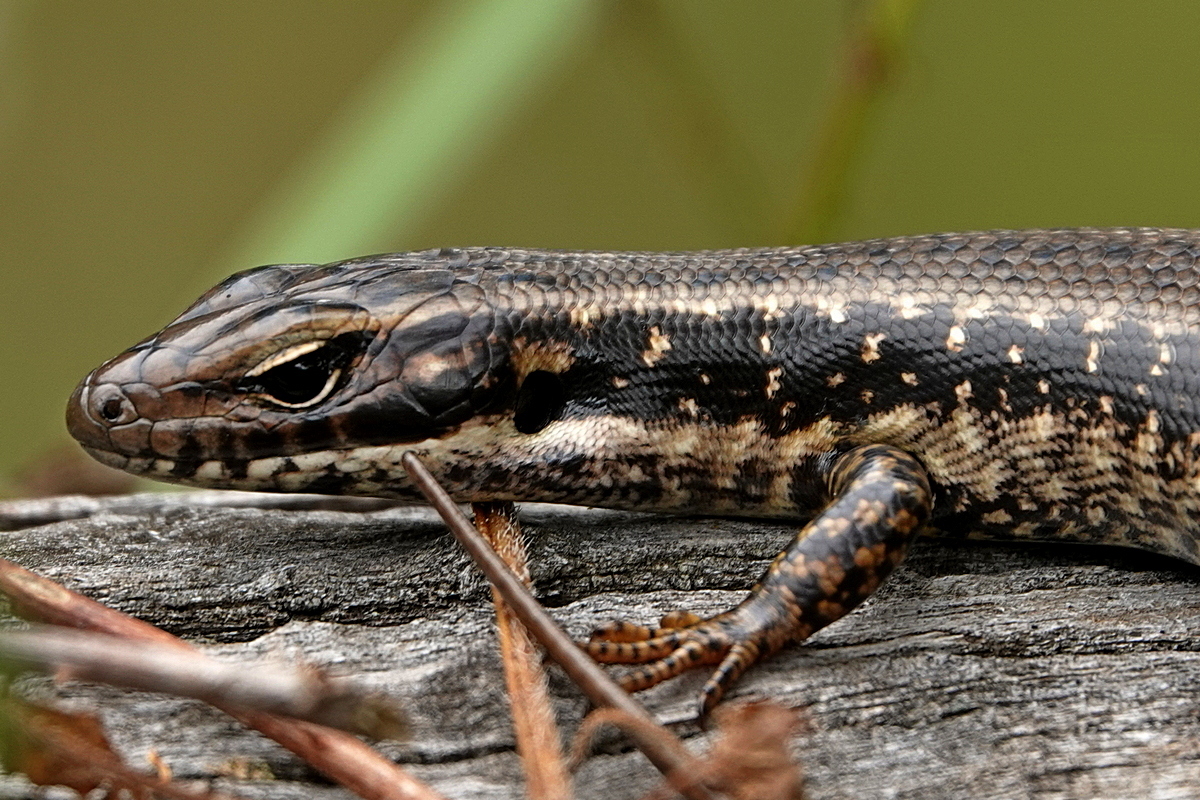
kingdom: Animalia
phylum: Chordata
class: Squamata
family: Scincidae
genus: Eulamprus
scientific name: Eulamprus heatwolei
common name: Warm-temperate water-skink
